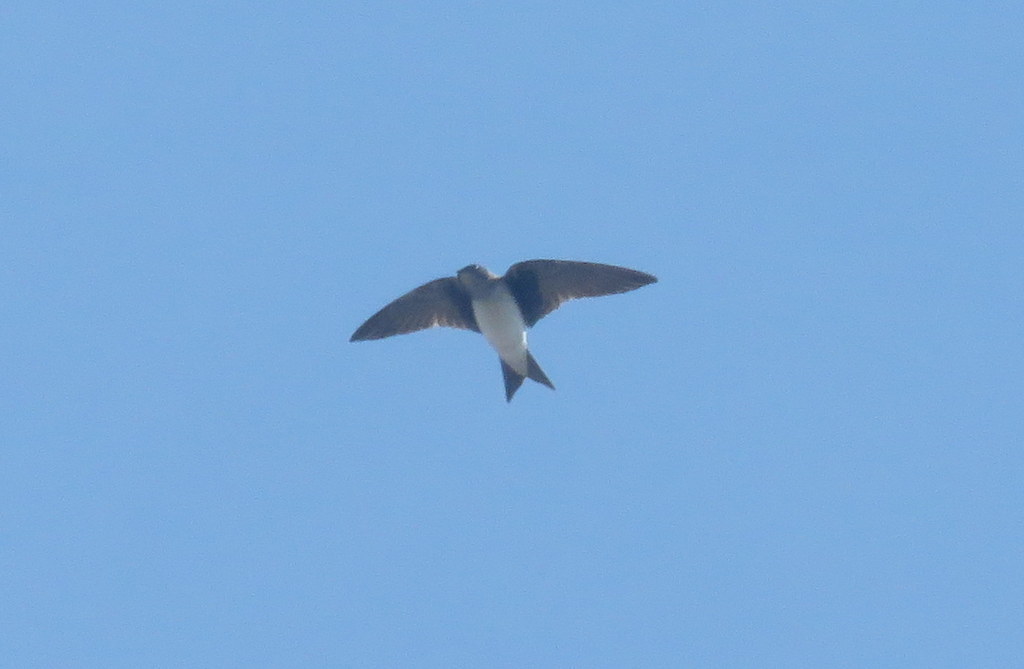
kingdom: Animalia
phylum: Chordata
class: Aves
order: Passeriformes
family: Hirundinidae
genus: Progne
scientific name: Progne chalybea
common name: Grey-breasted martin
